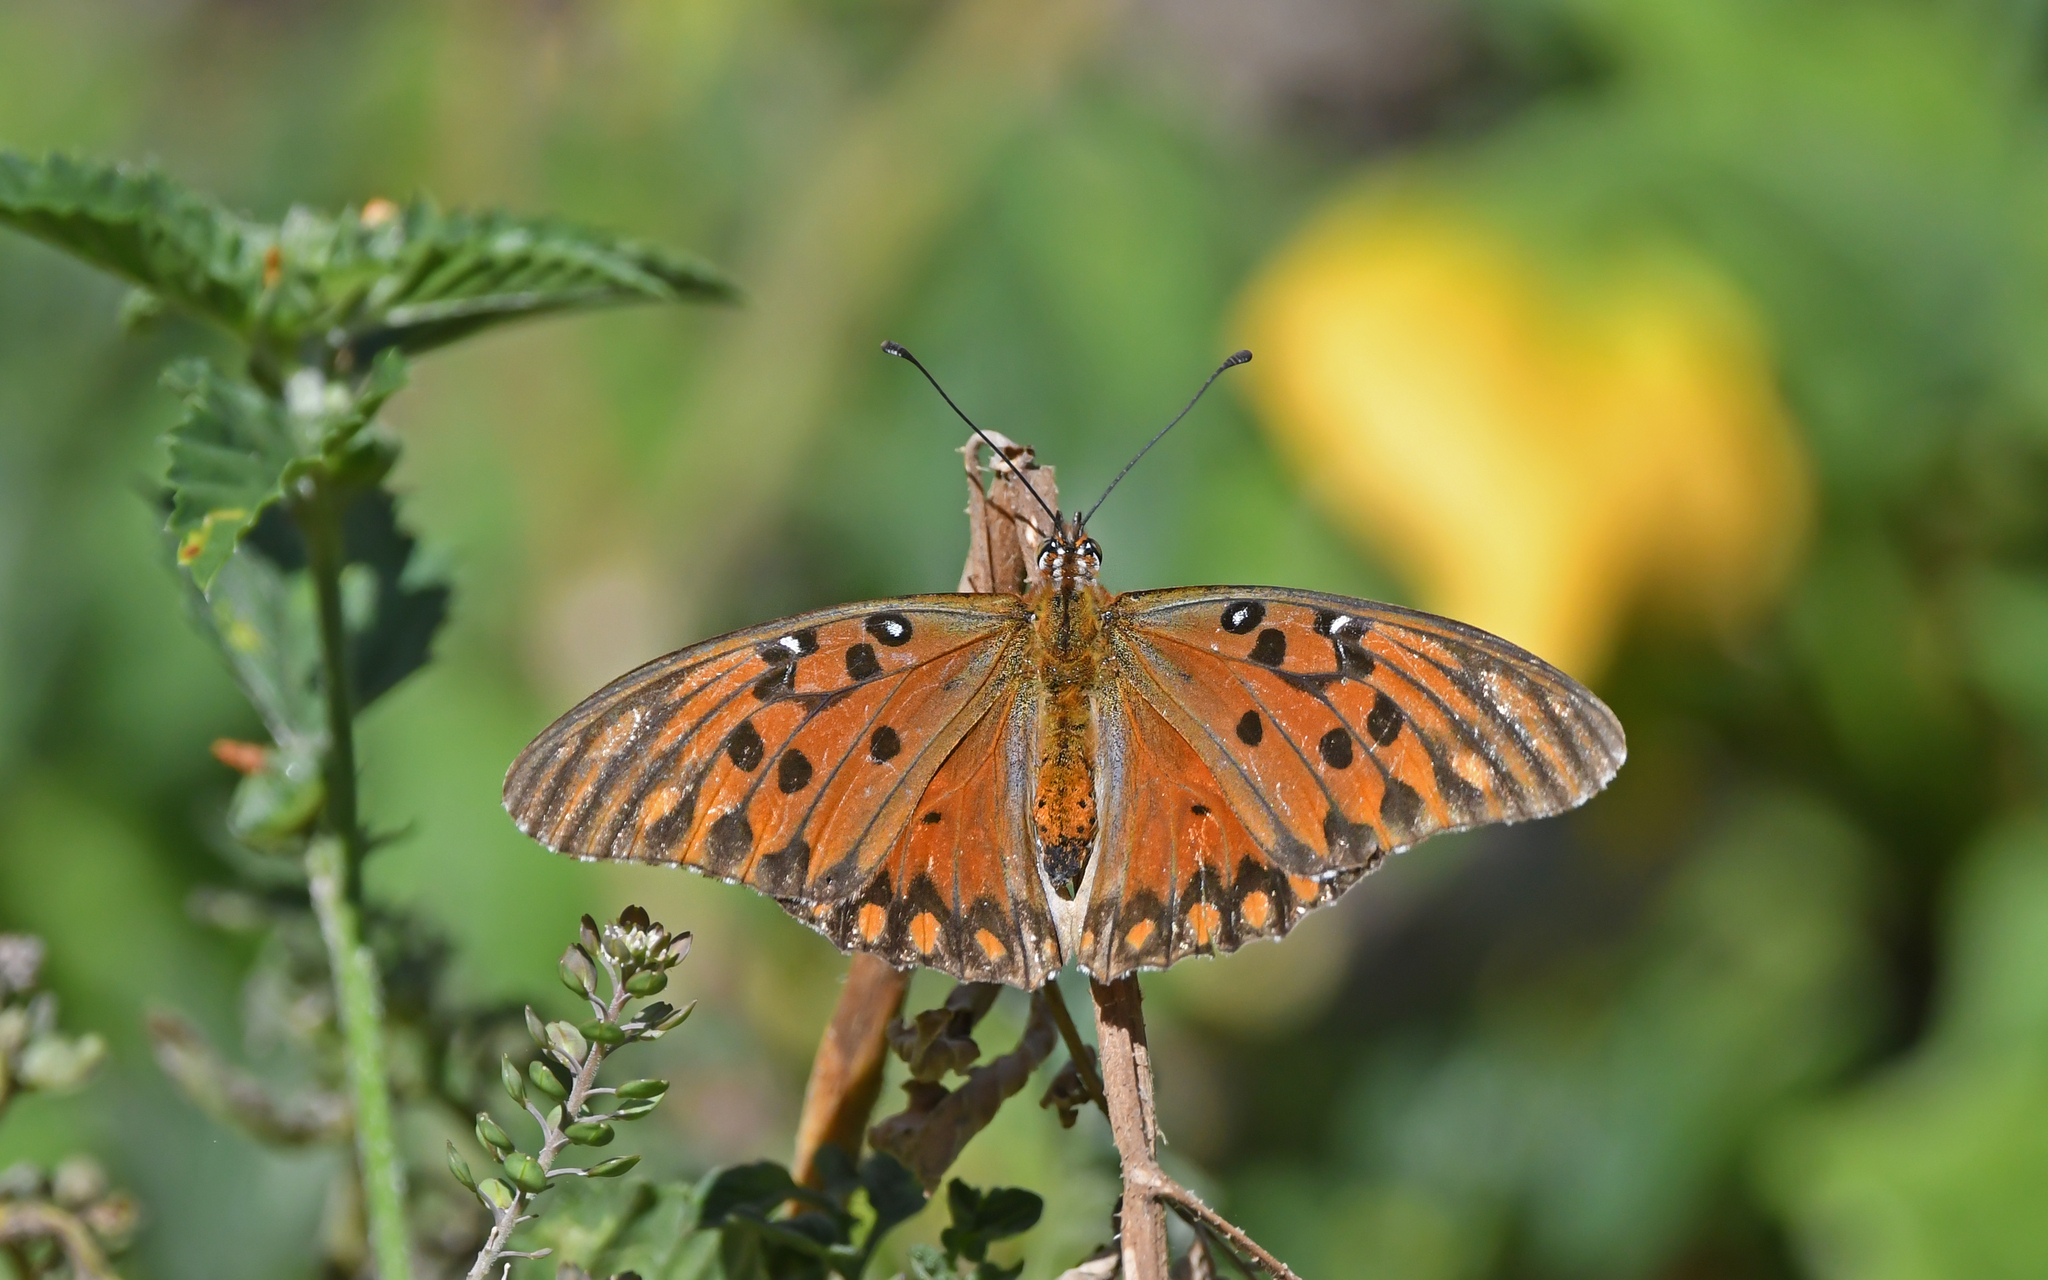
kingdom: Animalia
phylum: Arthropoda
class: Insecta
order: Lepidoptera
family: Nymphalidae
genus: Dione
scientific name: Dione vanillae
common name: Gulf fritillary
